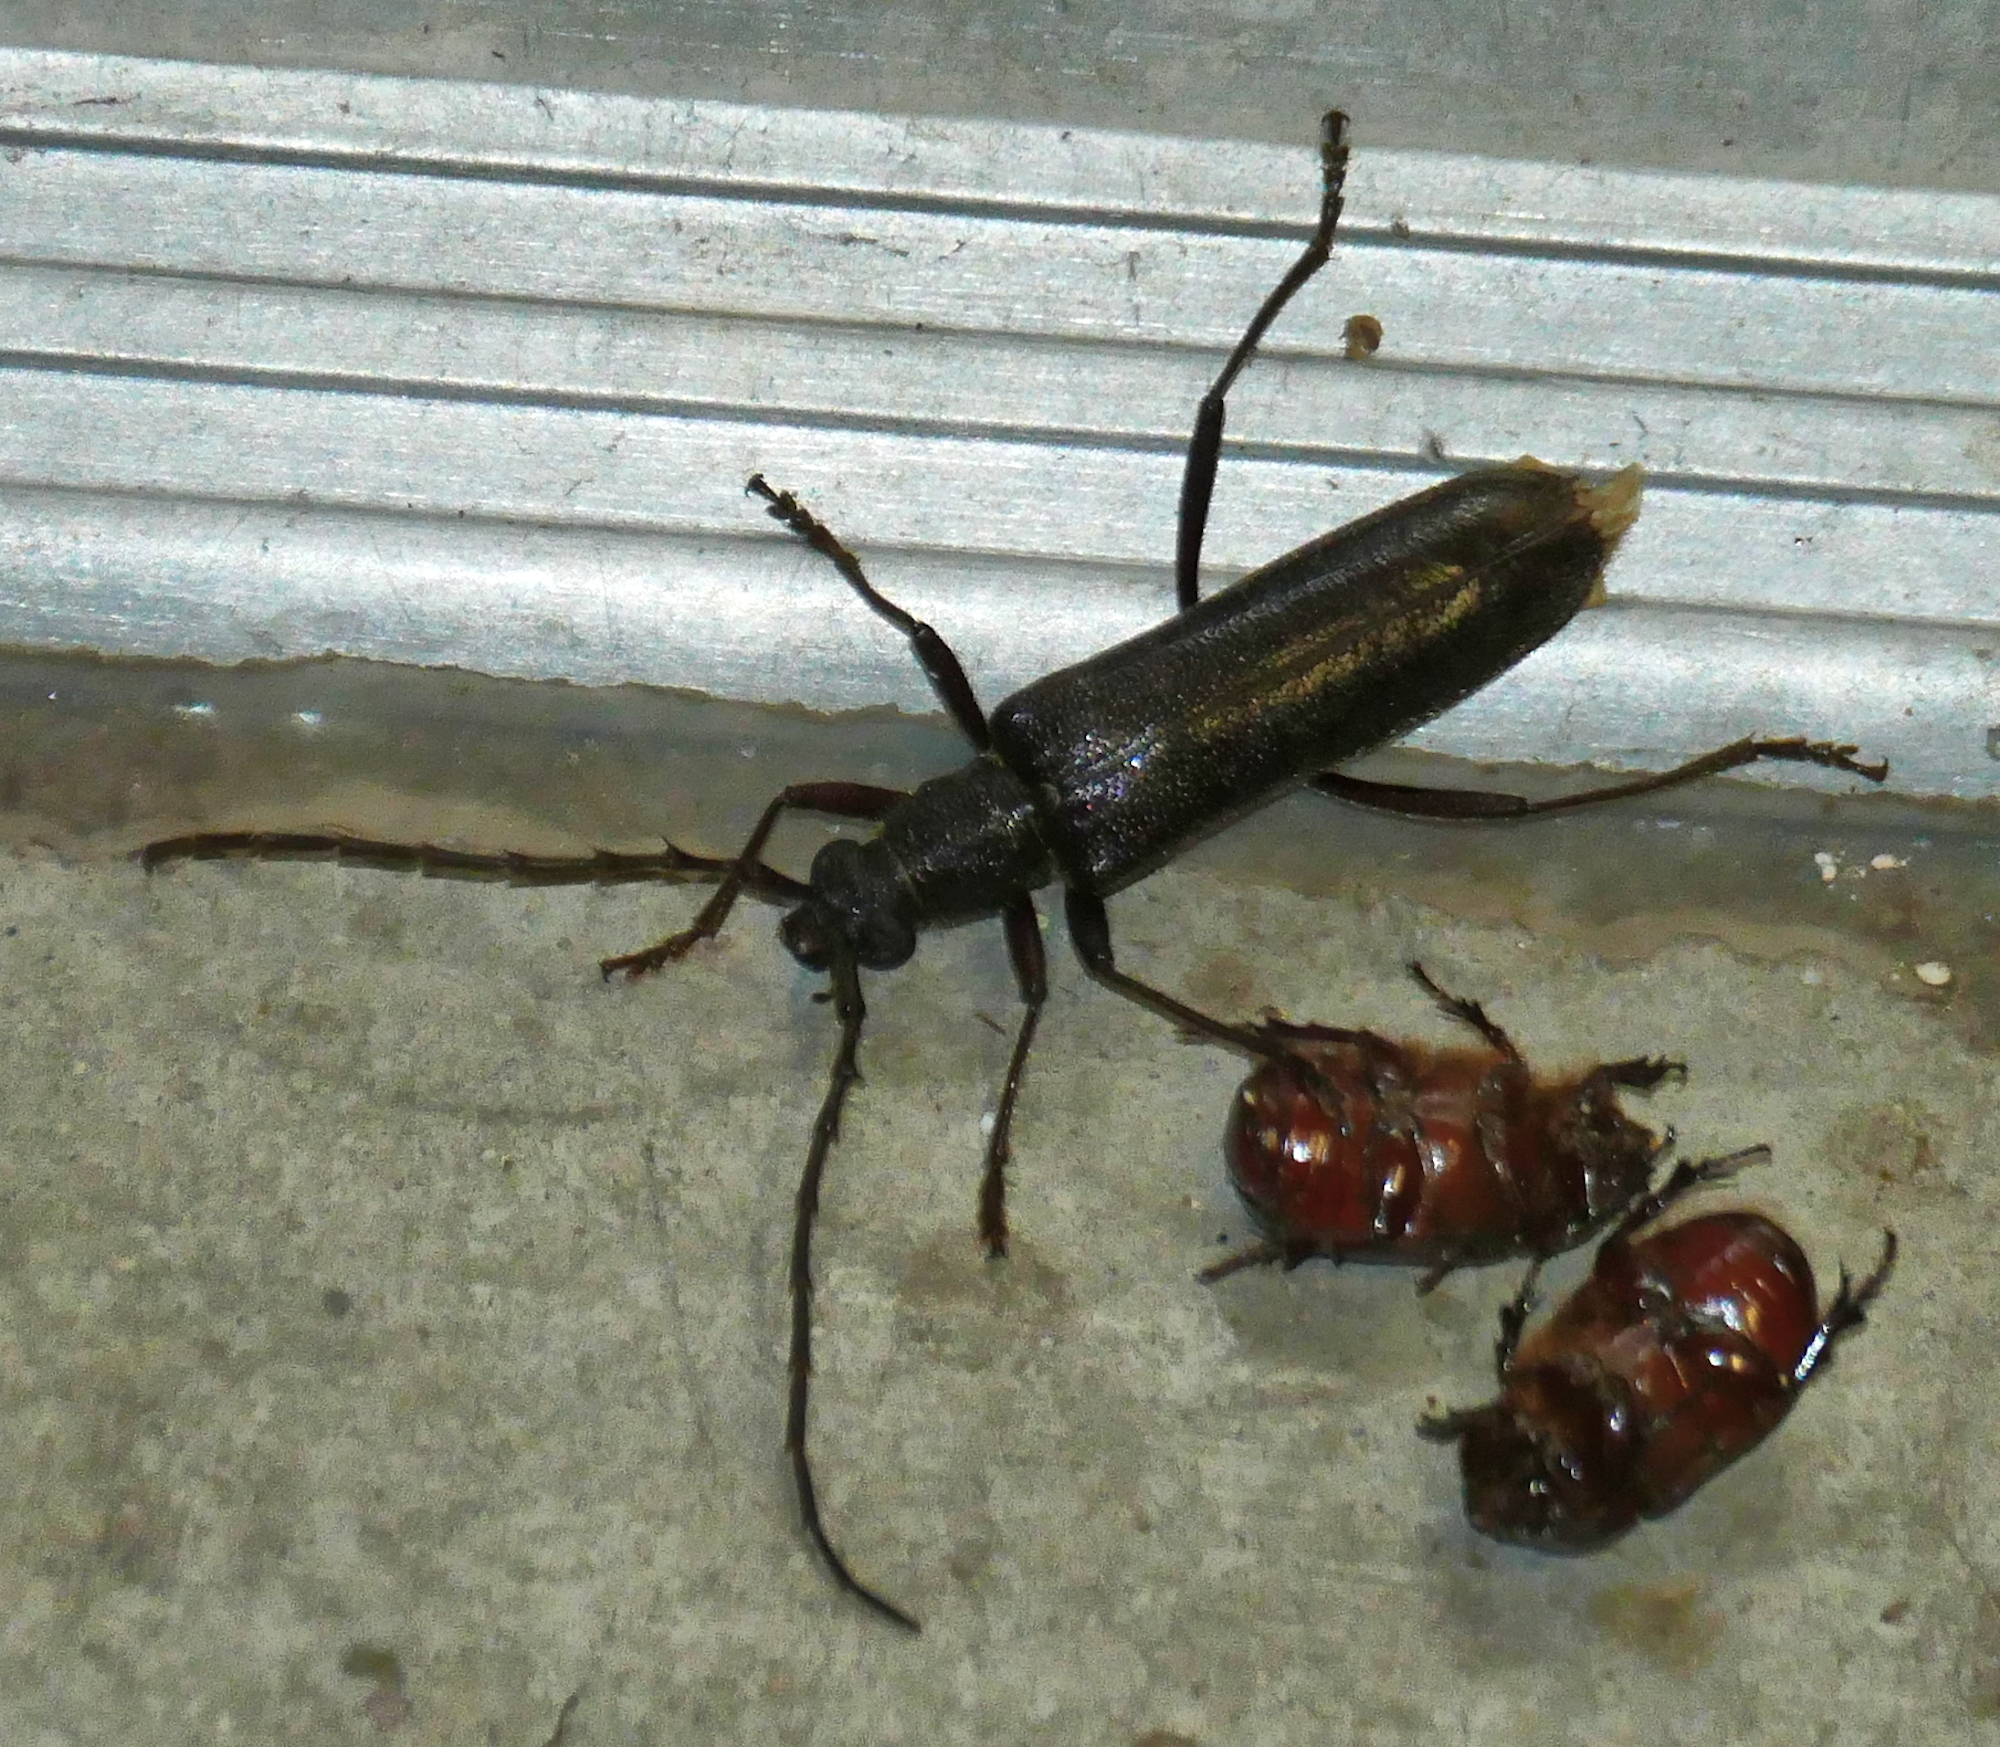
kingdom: Animalia
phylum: Arthropoda
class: Insecta
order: Coleoptera
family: Cerambycidae
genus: Aneflus
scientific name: Aneflus calvatus
